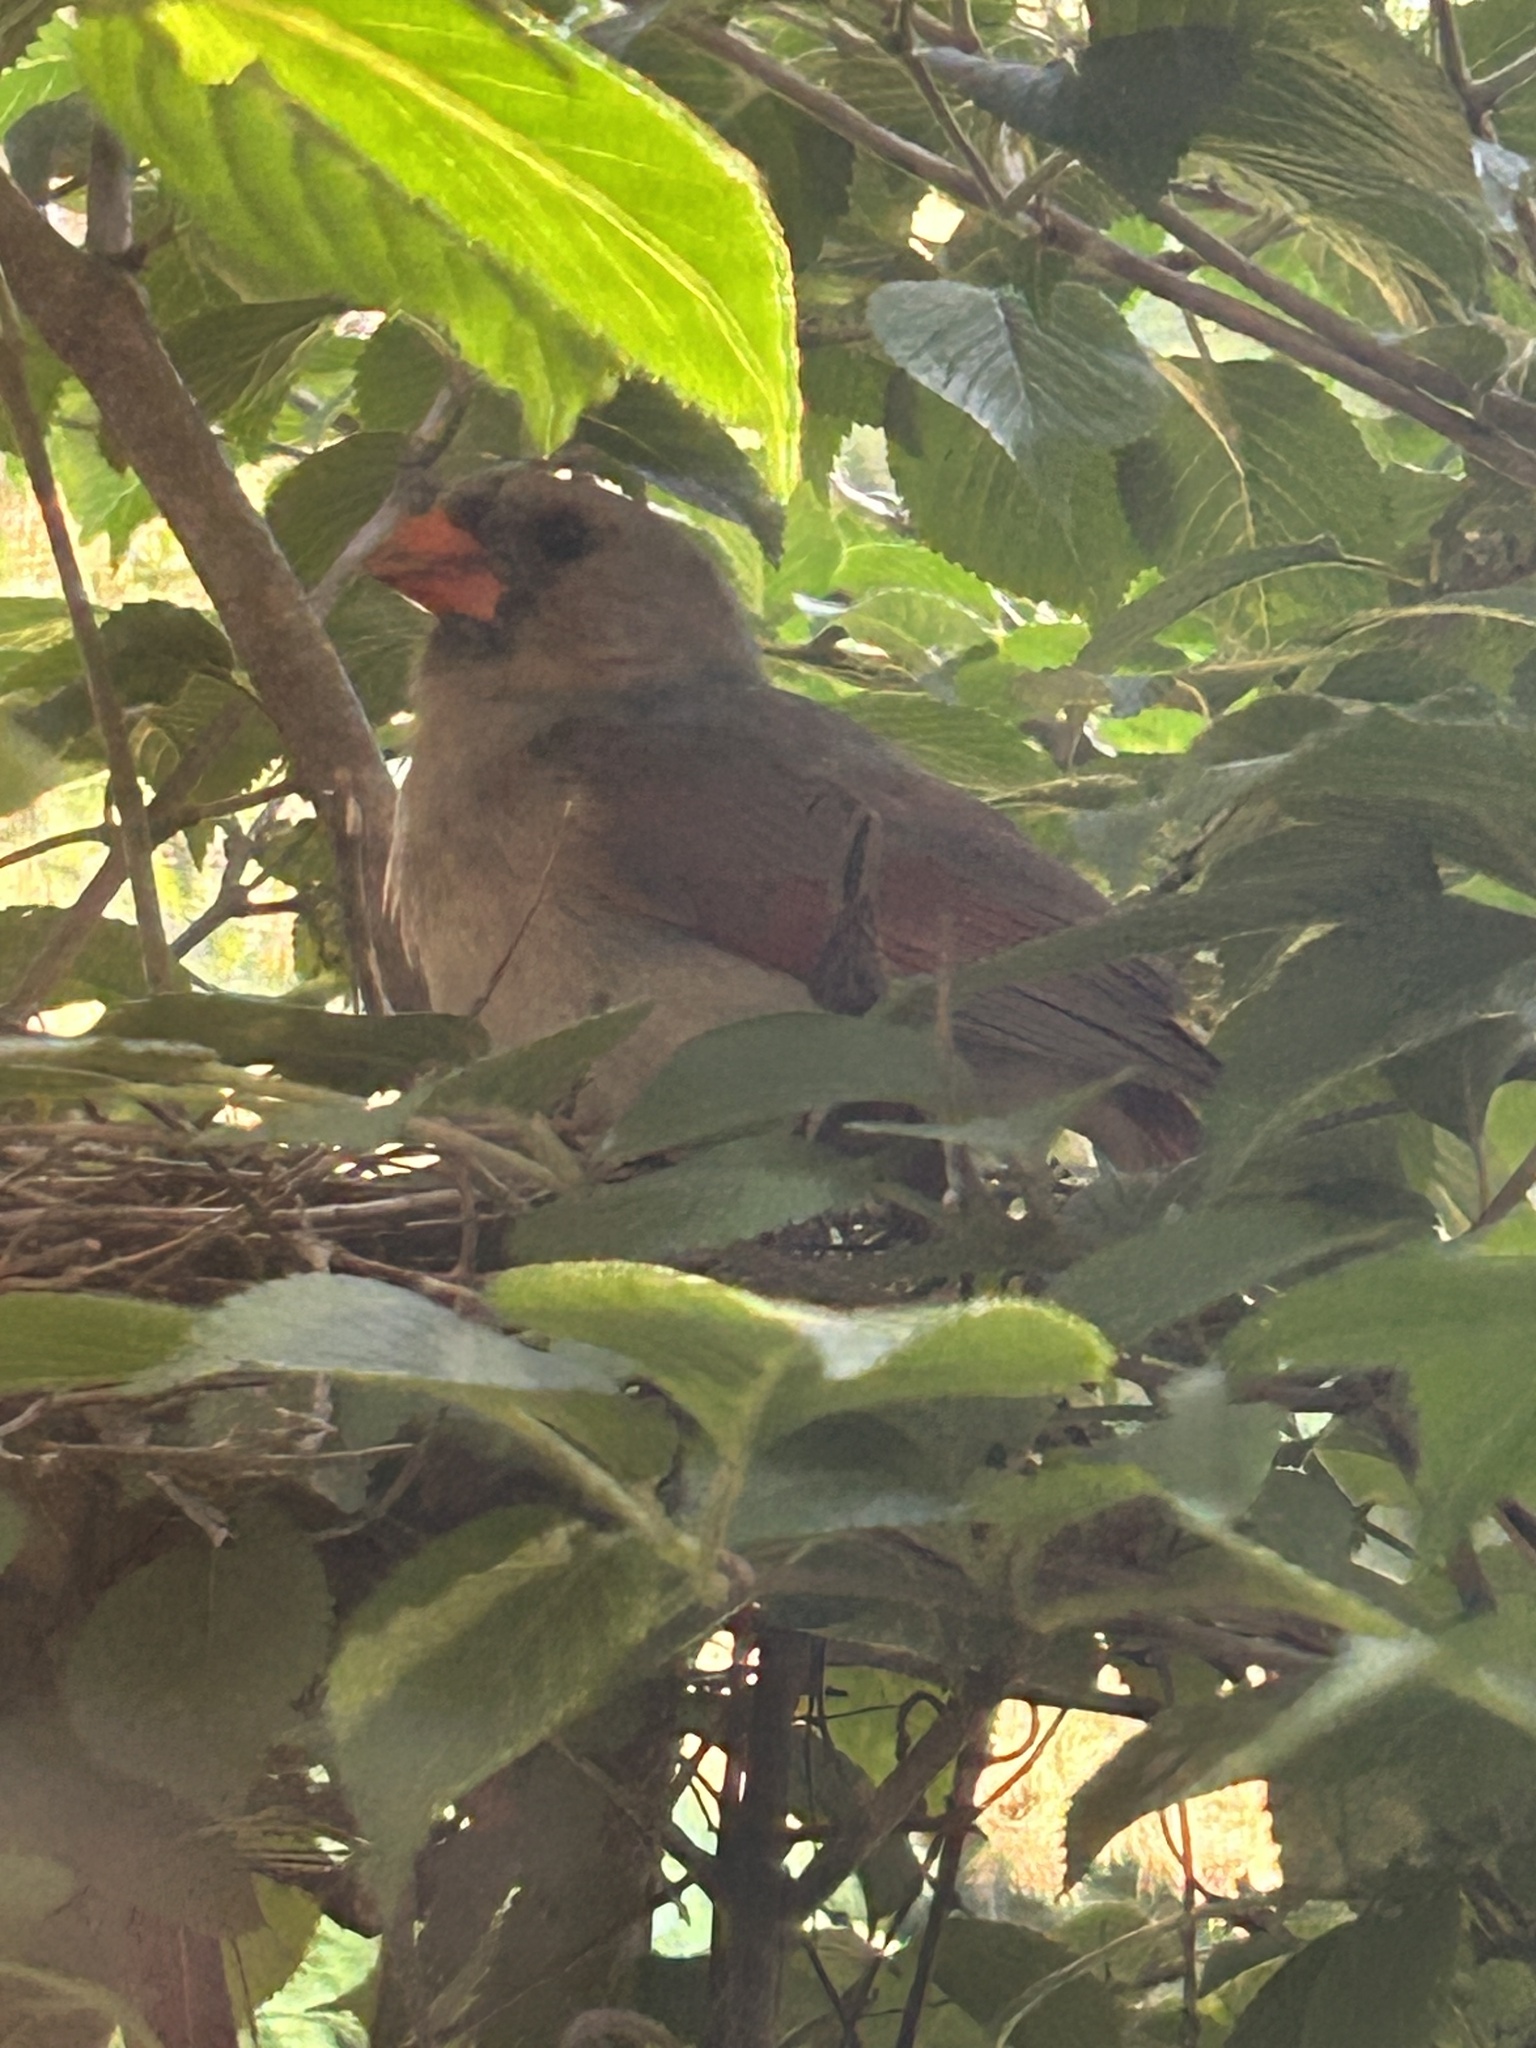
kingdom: Animalia
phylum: Chordata
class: Aves
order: Passeriformes
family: Cardinalidae
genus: Cardinalis
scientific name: Cardinalis cardinalis
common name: Northern cardinal
